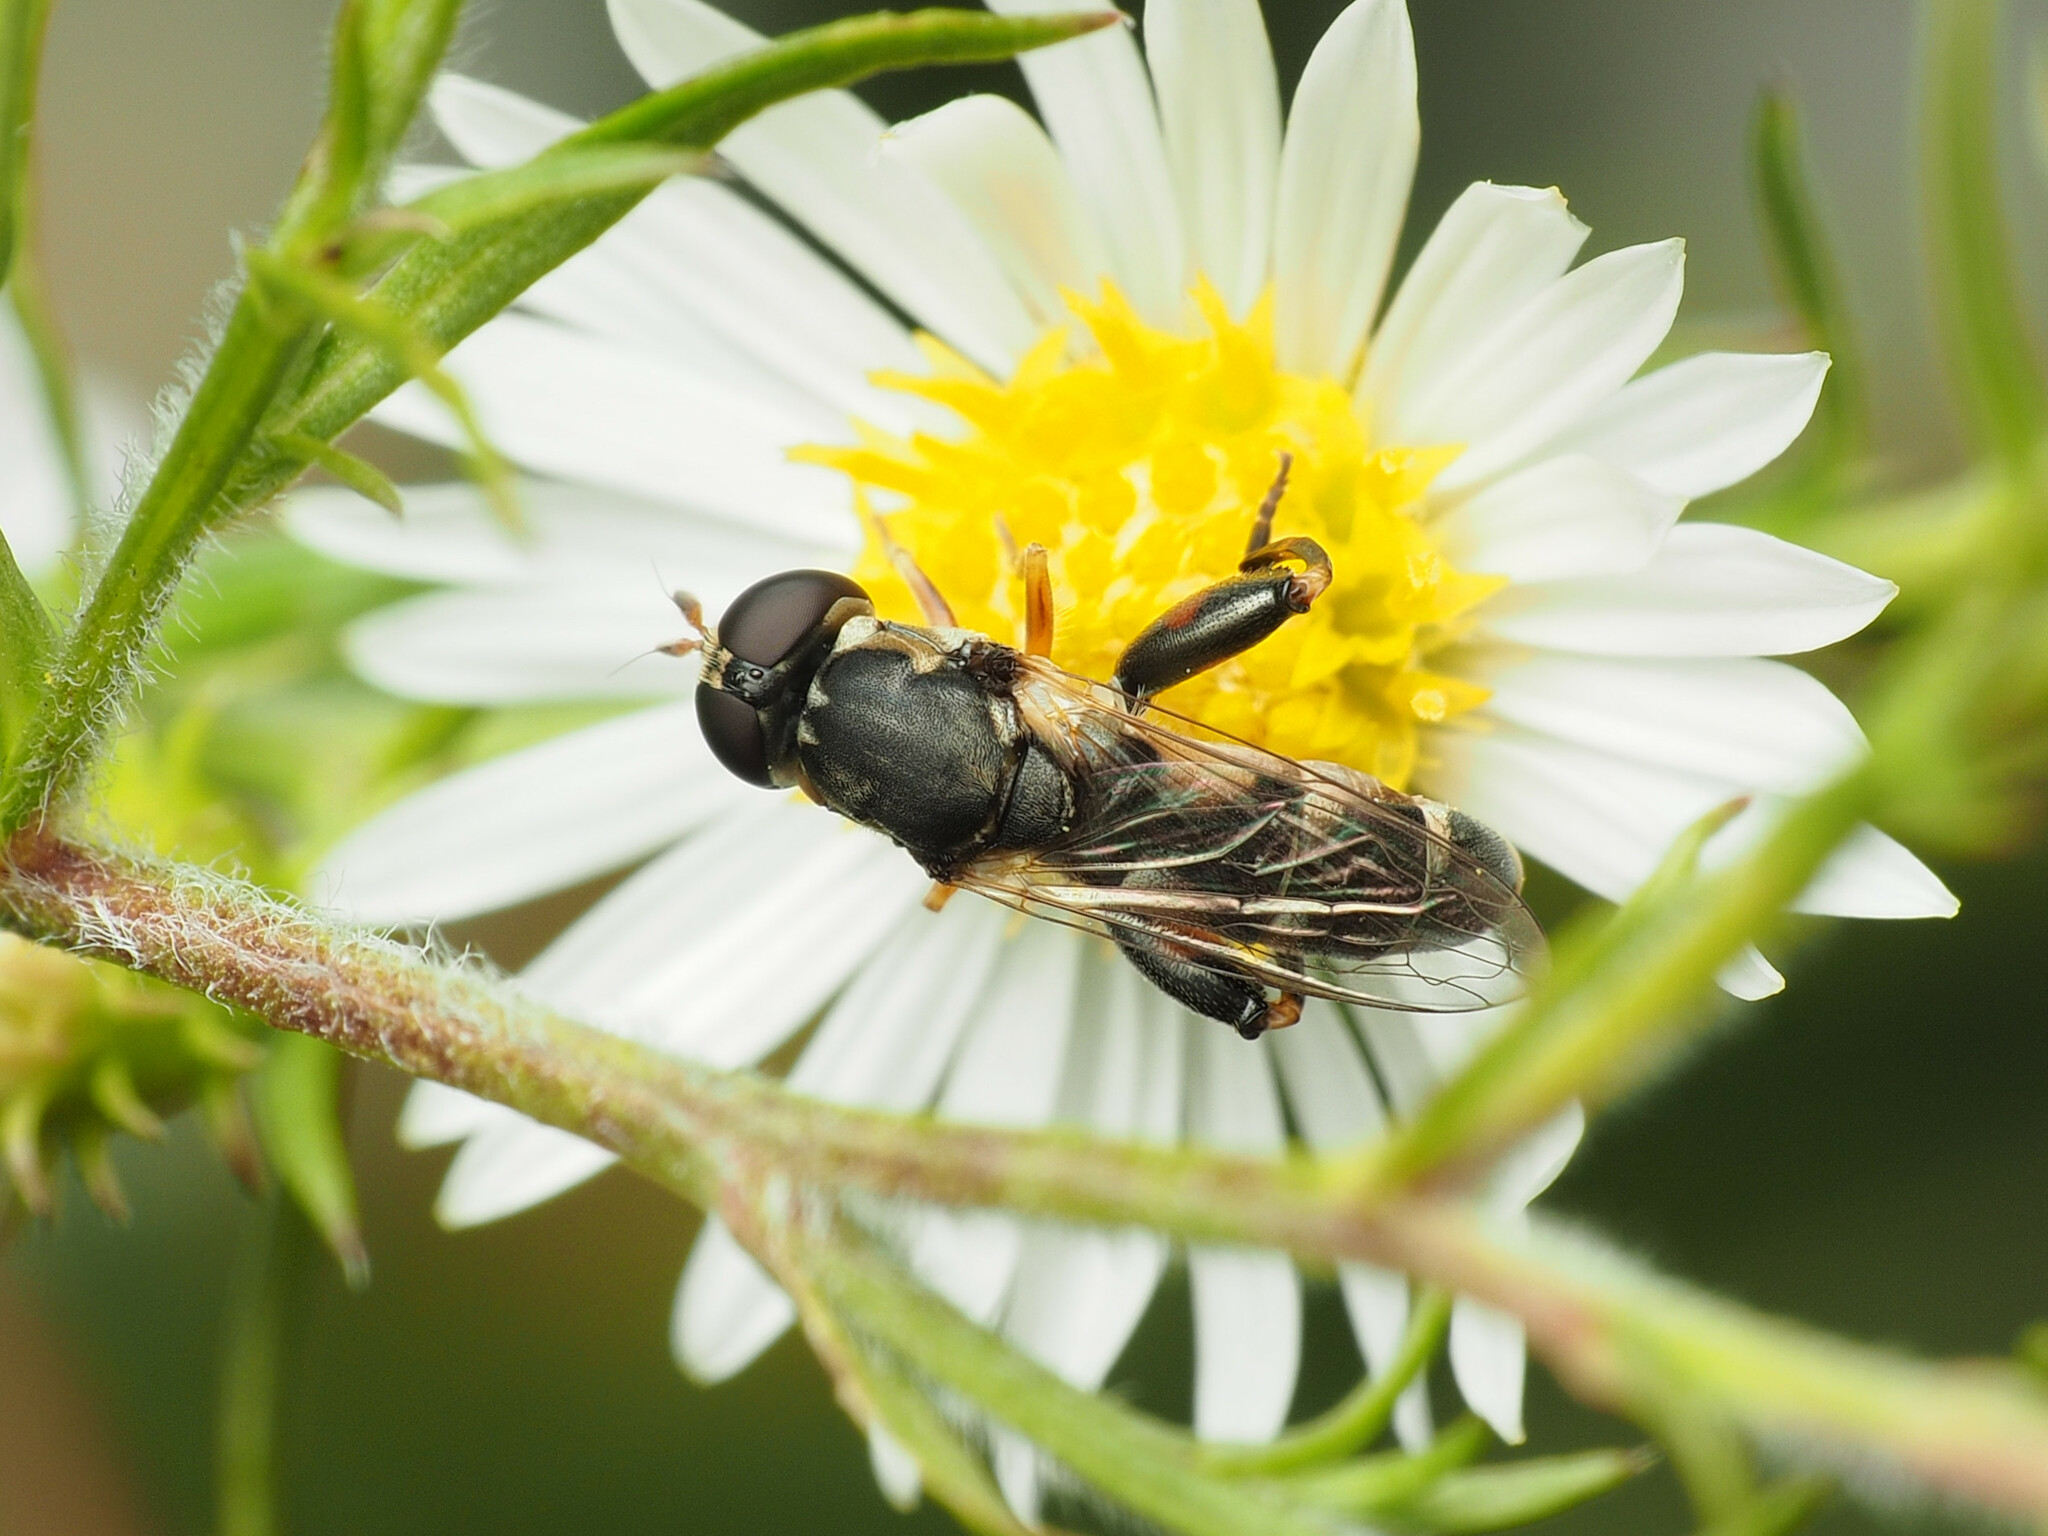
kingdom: Animalia
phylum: Arthropoda
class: Insecta
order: Diptera
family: Syrphidae
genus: Syritta
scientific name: Syritta pipiens
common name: Hover fly
